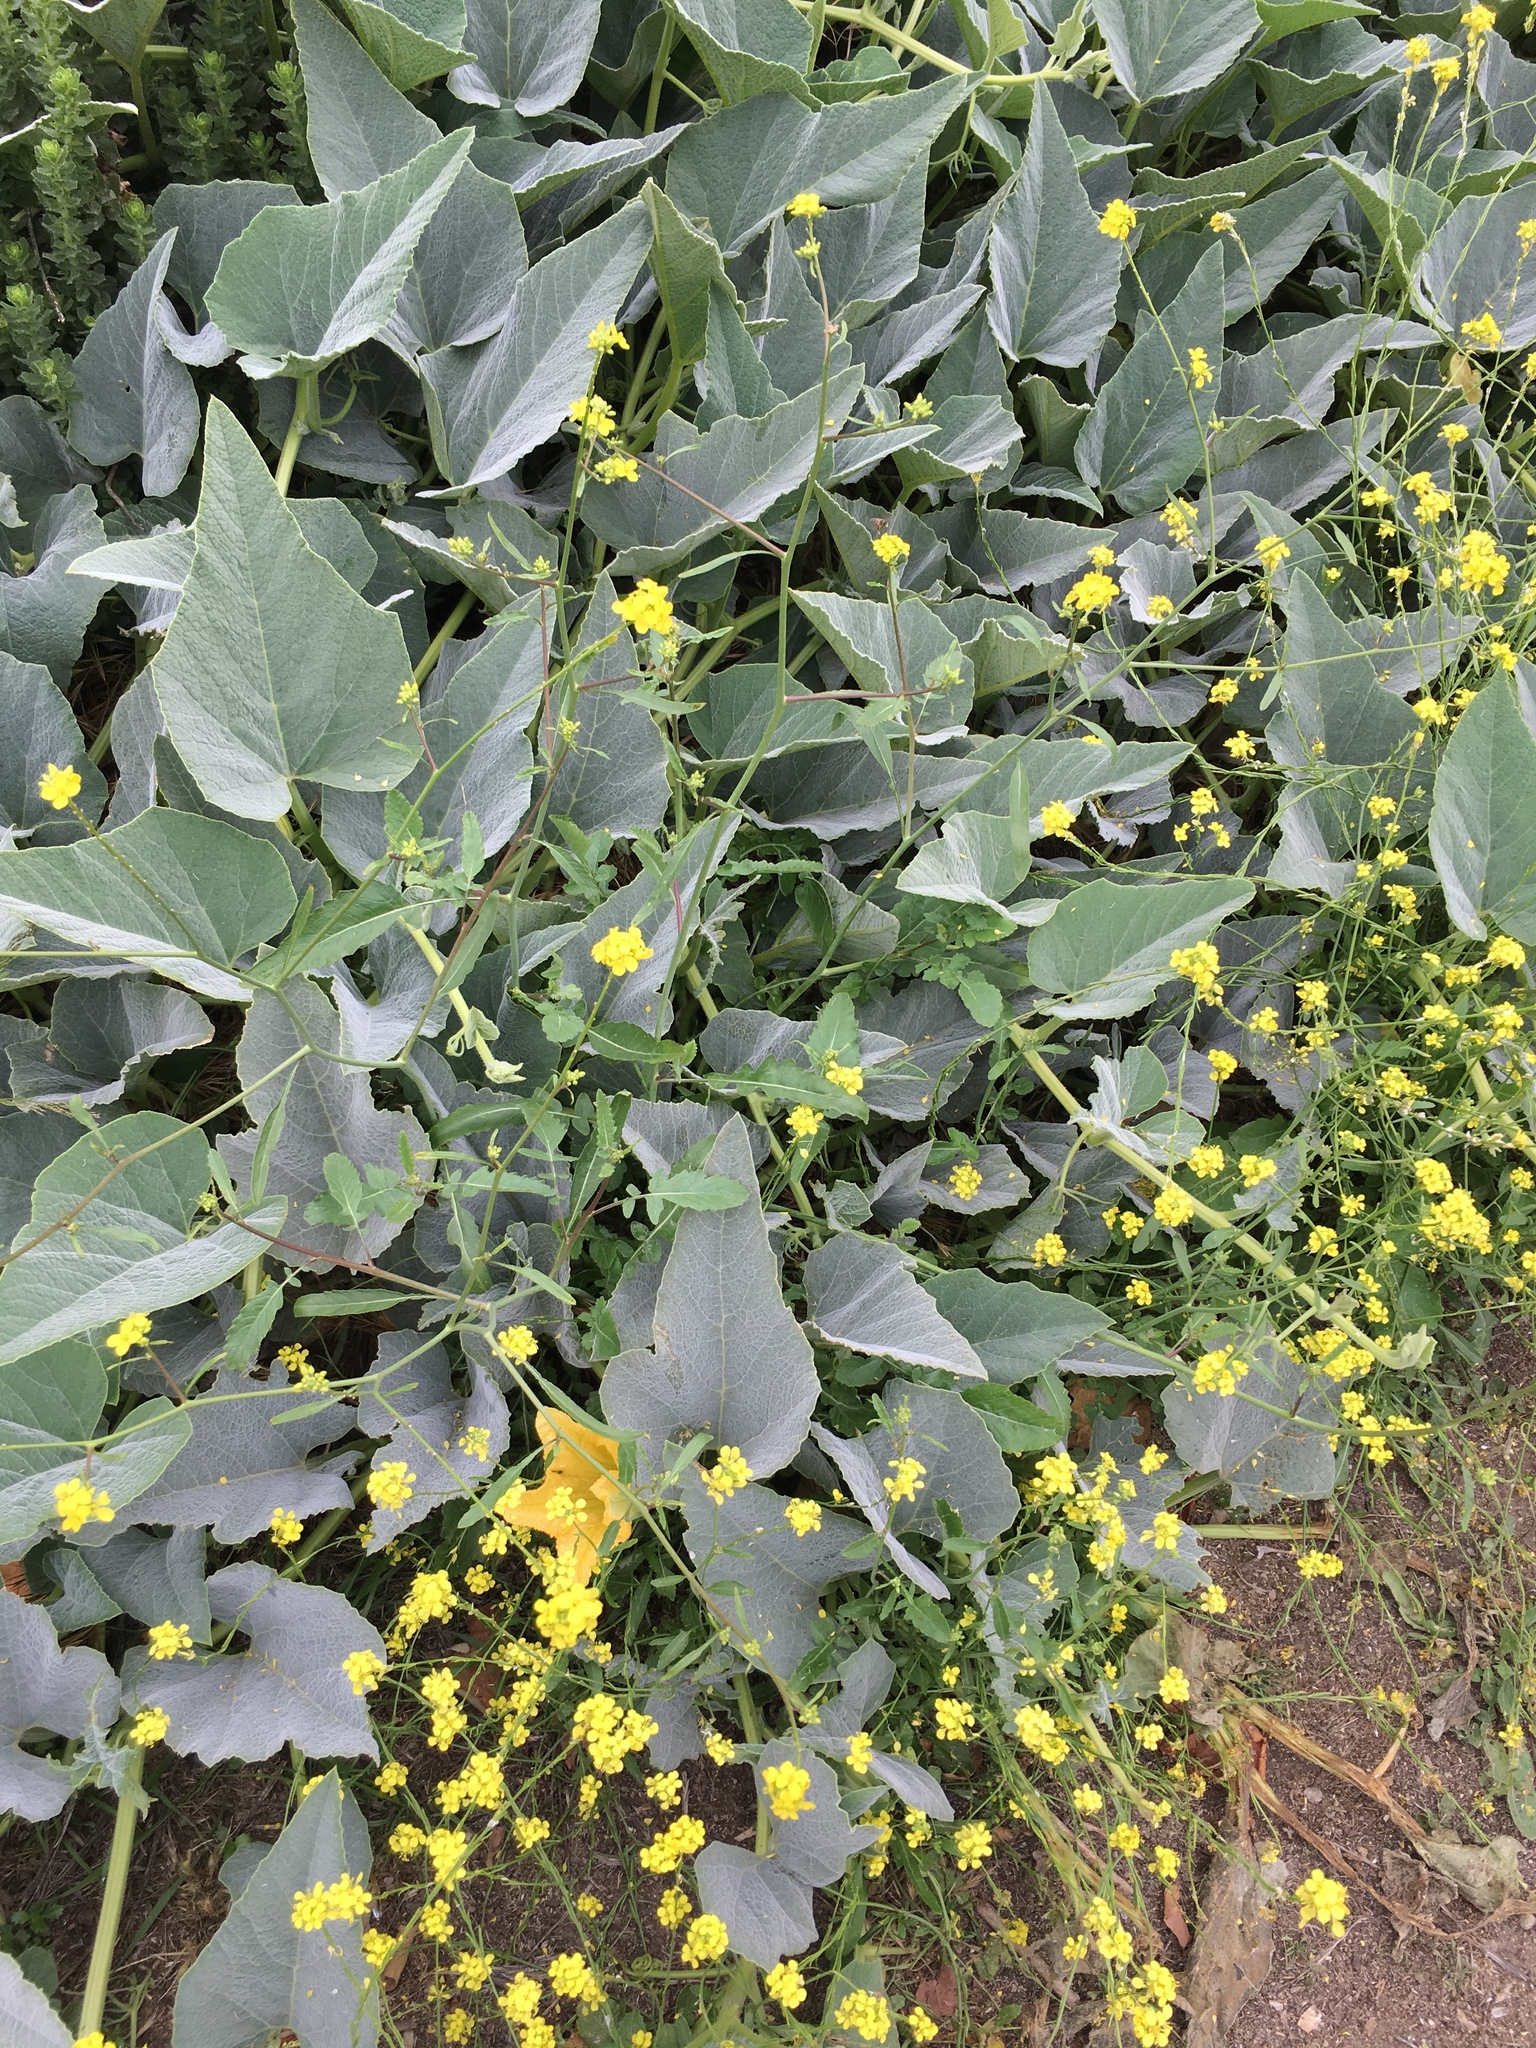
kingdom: Plantae
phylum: Tracheophyta
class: Magnoliopsida
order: Cucurbitales
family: Cucurbitaceae
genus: Cucurbita
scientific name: Cucurbita foetidissima
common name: Buffalo gourd
